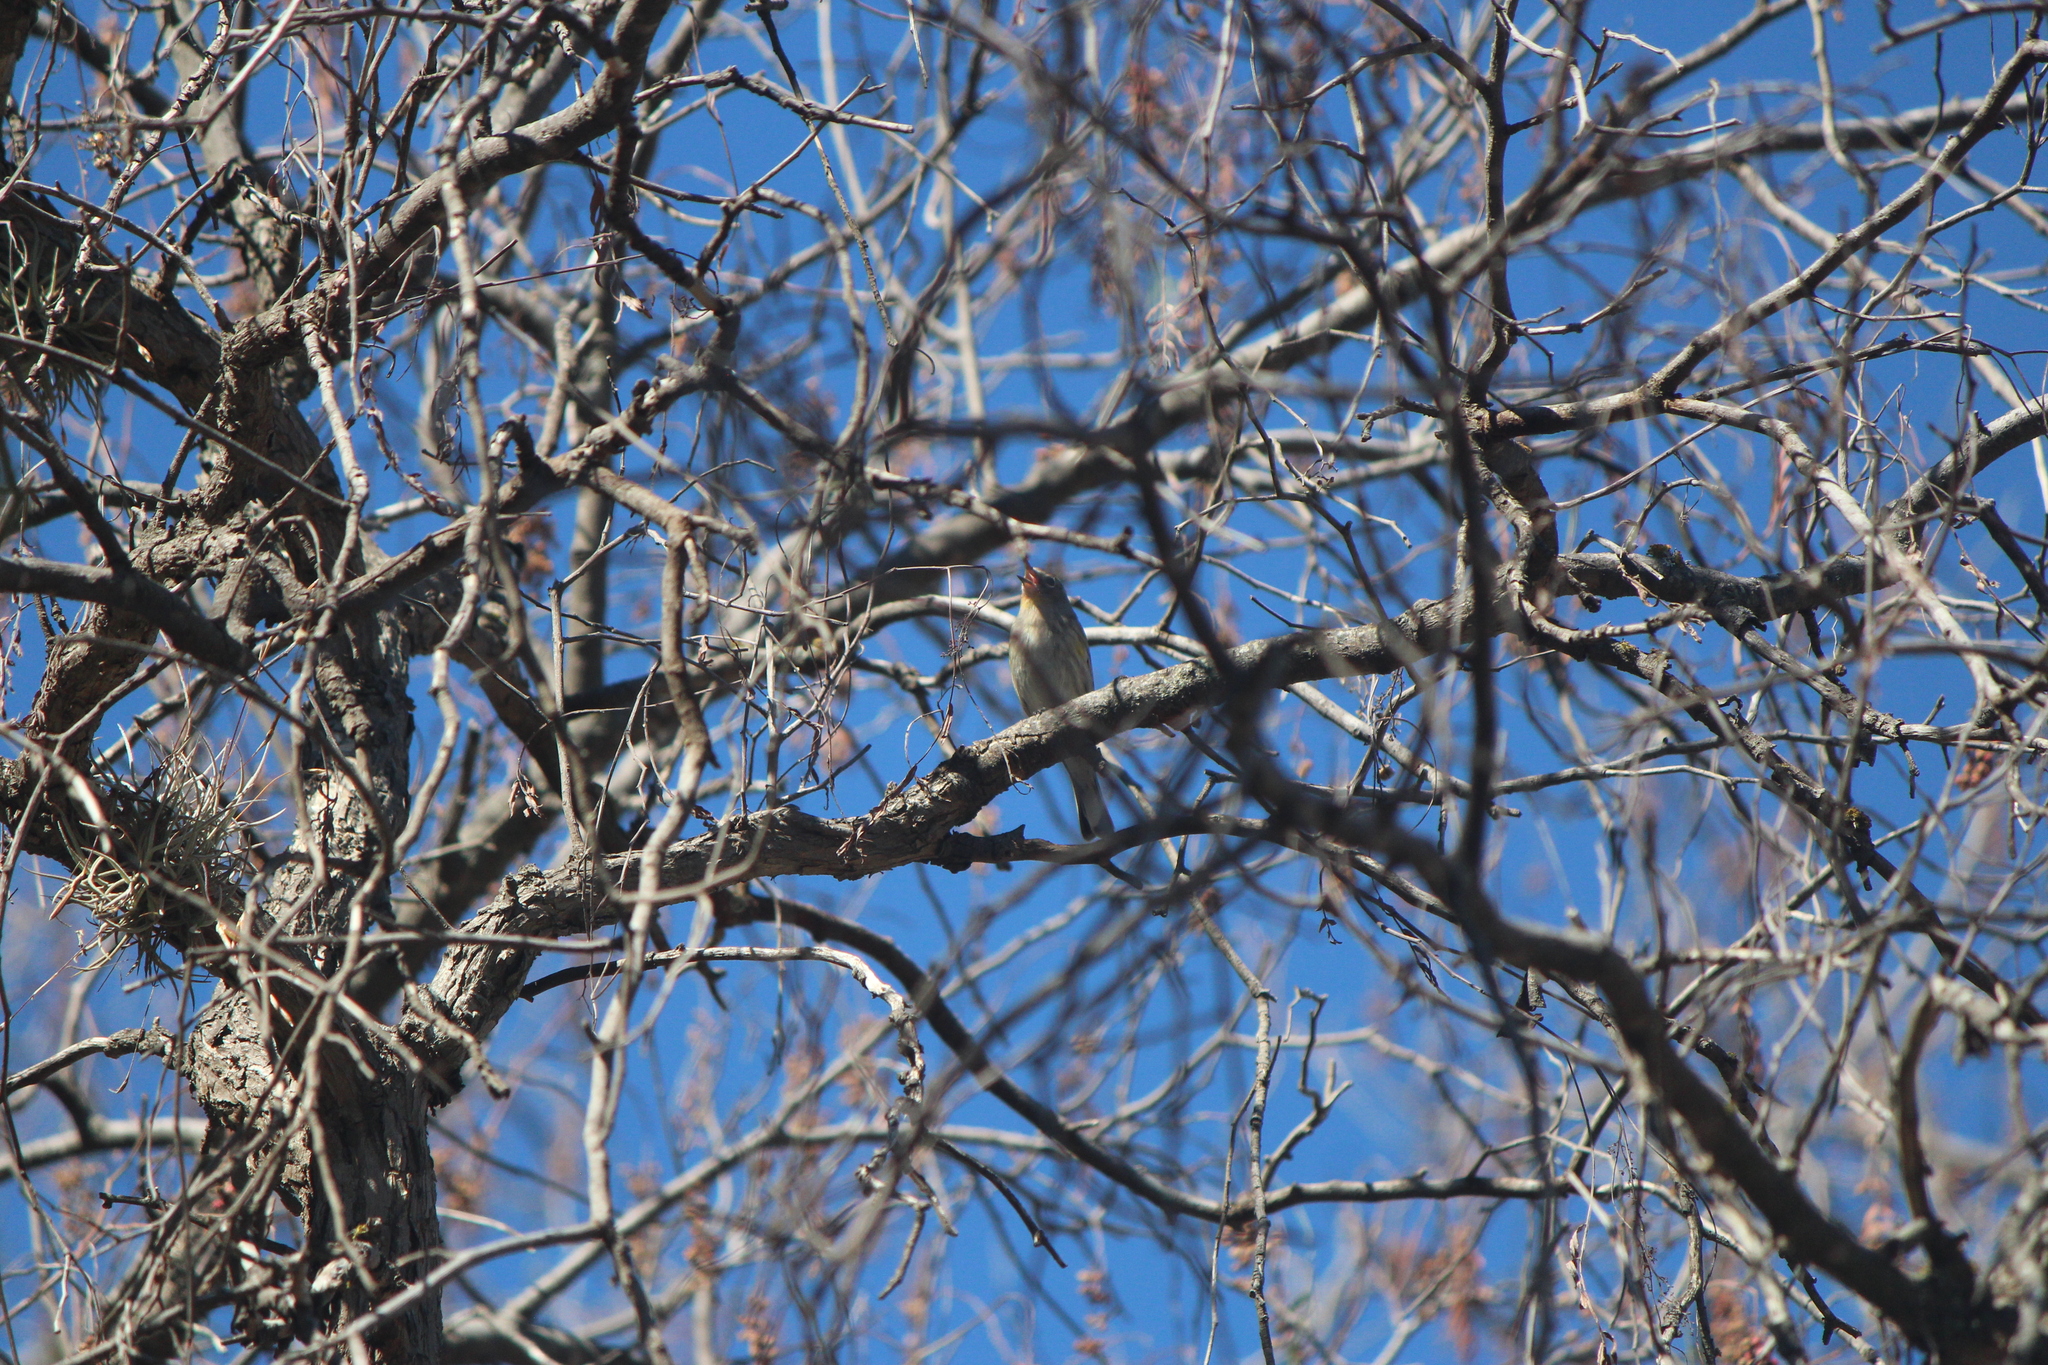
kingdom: Animalia
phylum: Chordata
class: Aves
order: Passeriformes
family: Parulidae
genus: Setophaga
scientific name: Setophaga auduboni
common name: Audubon's warbler
